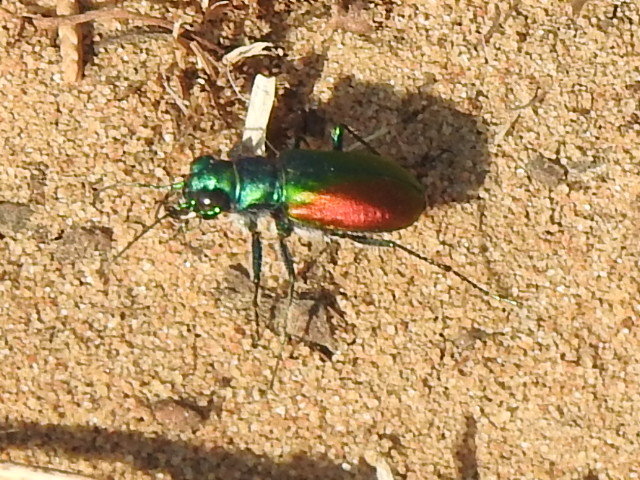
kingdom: Animalia
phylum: Arthropoda
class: Insecta
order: Coleoptera
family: Carabidae
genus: Cicindela
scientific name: Cicindela scutellaris
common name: Festive tiger beetle
